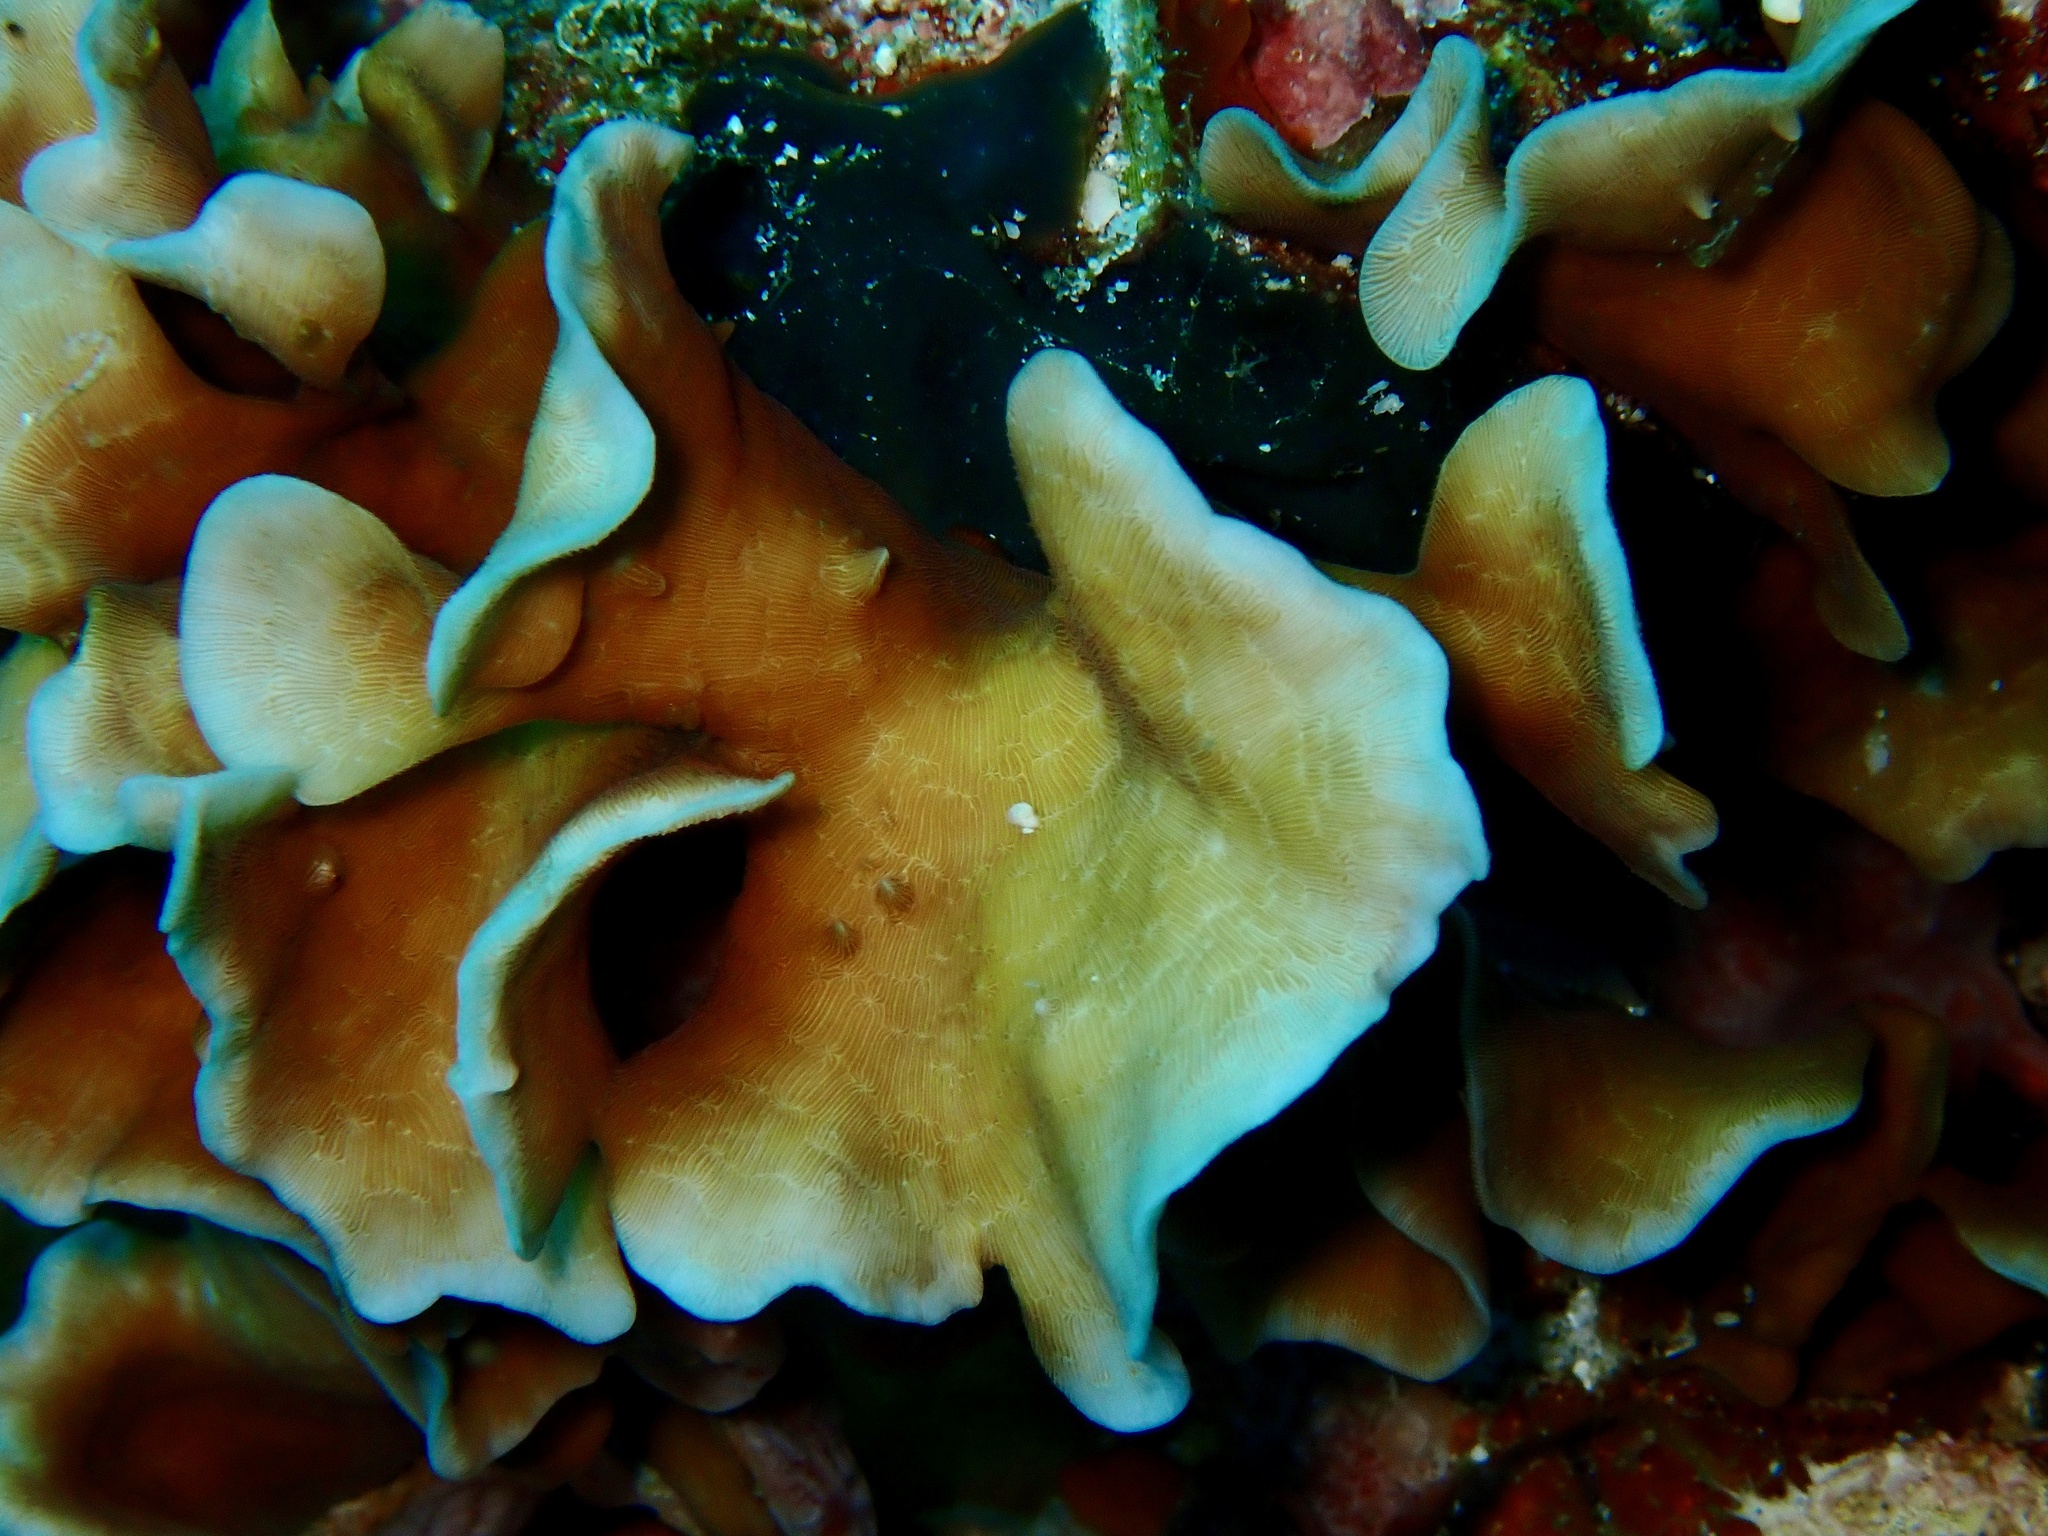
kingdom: Animalia
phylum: Cnidaria
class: Anthozoa
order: Scleractinia
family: Agariciidae
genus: Pavona
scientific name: Pavona cactus
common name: Leaf coral
